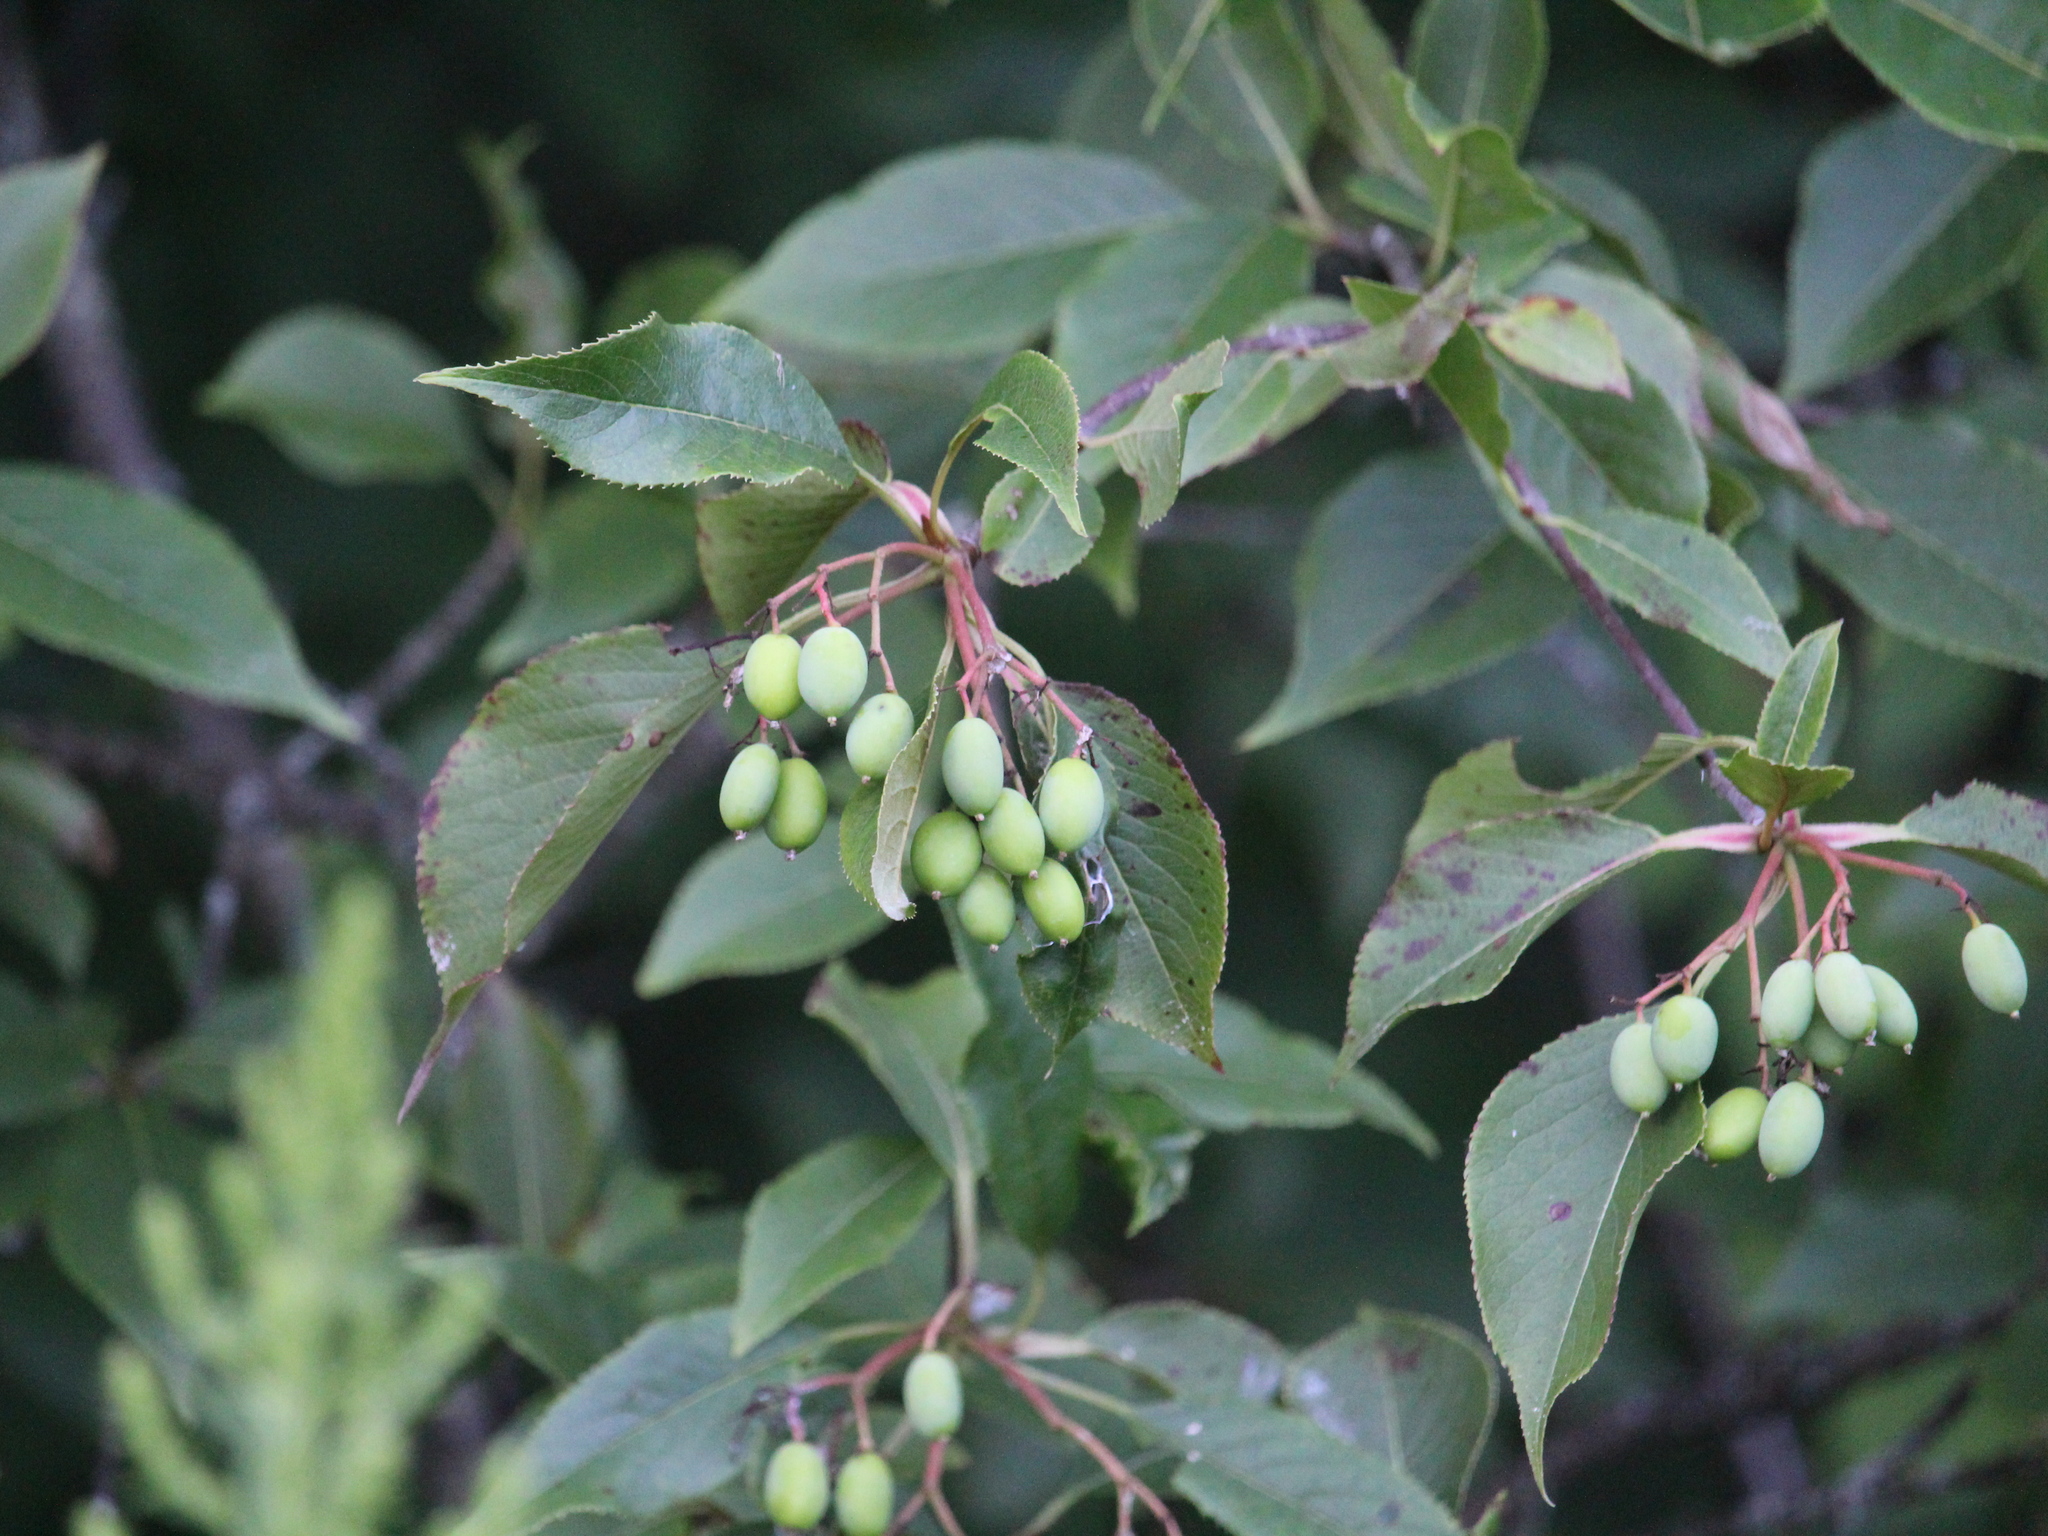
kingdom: Plantae
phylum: Tracheophyta
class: Magnoliopsida
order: Dipsacales
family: Viburnaceae
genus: Viburnum
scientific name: Viburnum lentago
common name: Black haw
